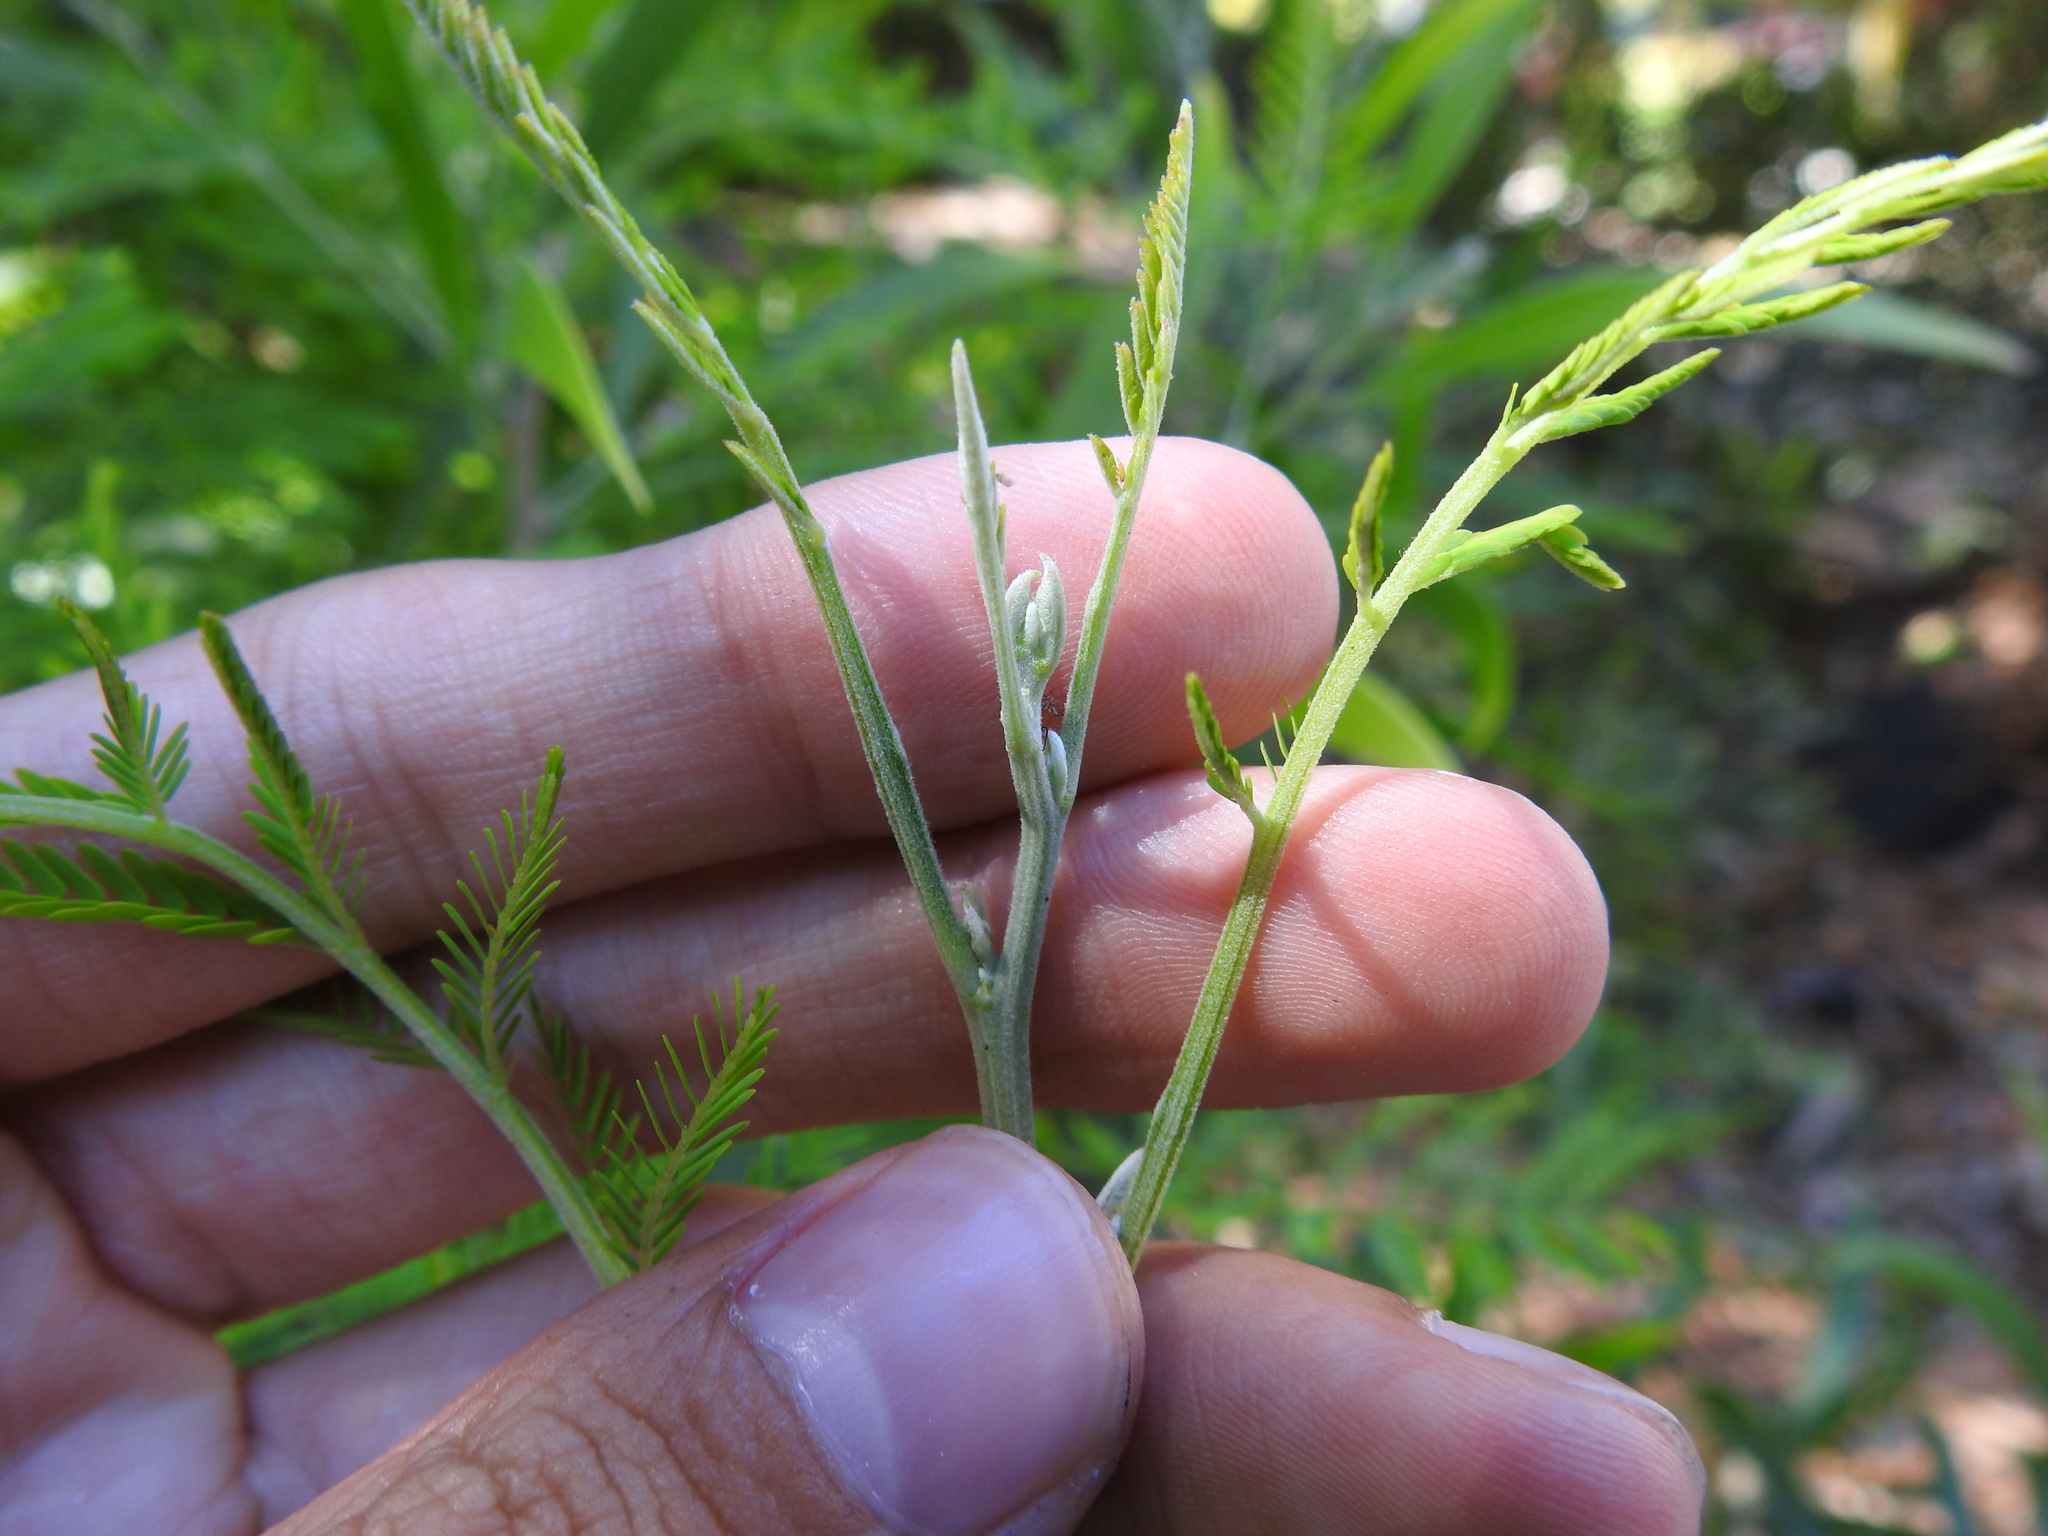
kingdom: Plantae
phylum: Tracheophyta
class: Magnoliopsida
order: Fabales
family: Fabaceae
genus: Acacia
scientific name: Acacia melanoxylon
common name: Blackwood
